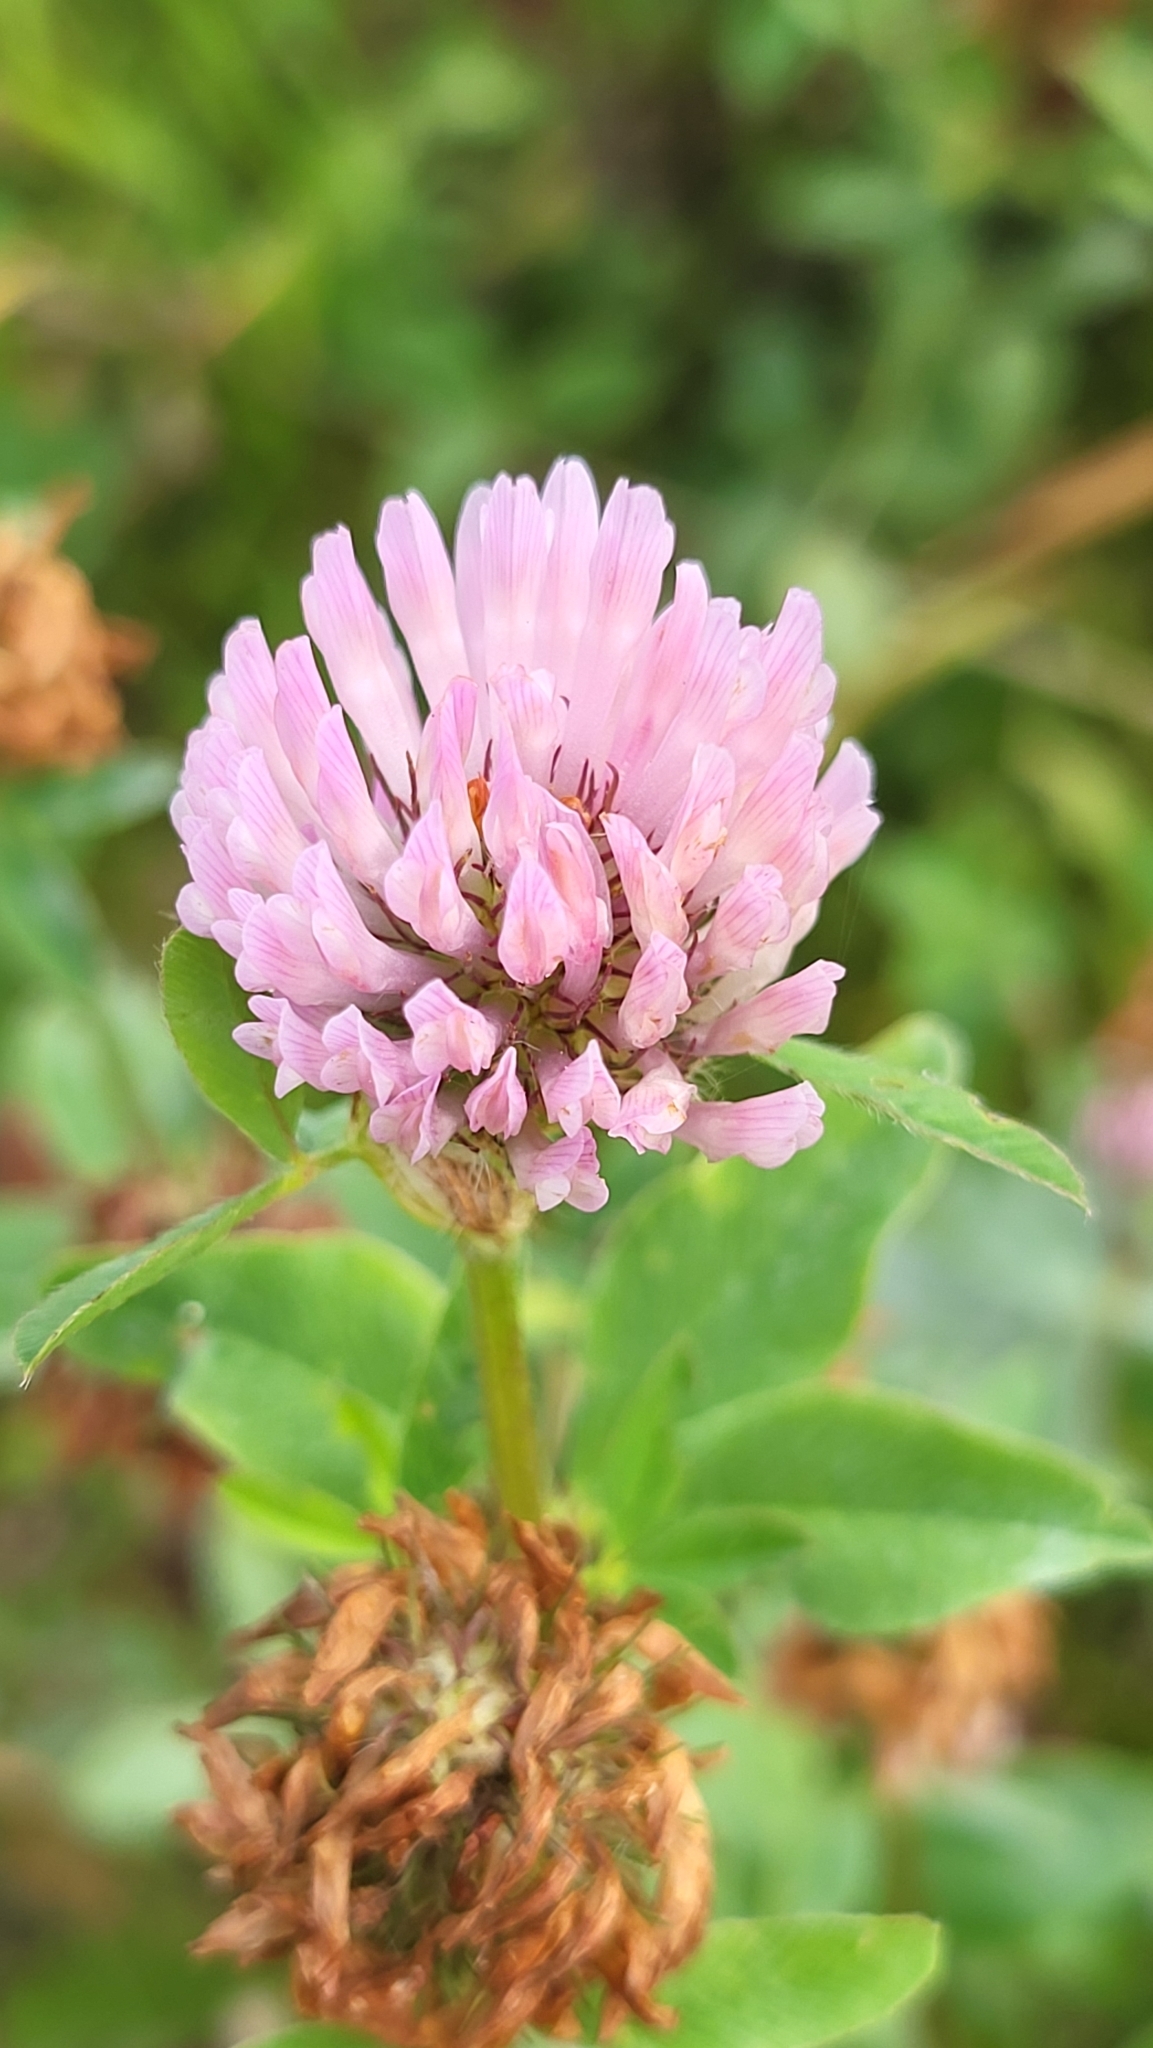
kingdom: Plantae
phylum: Tracheophyta
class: Magnoliopsida
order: Fabales
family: Fabaceae
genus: Trifolium
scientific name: Trifolium pratense
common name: Red clover
